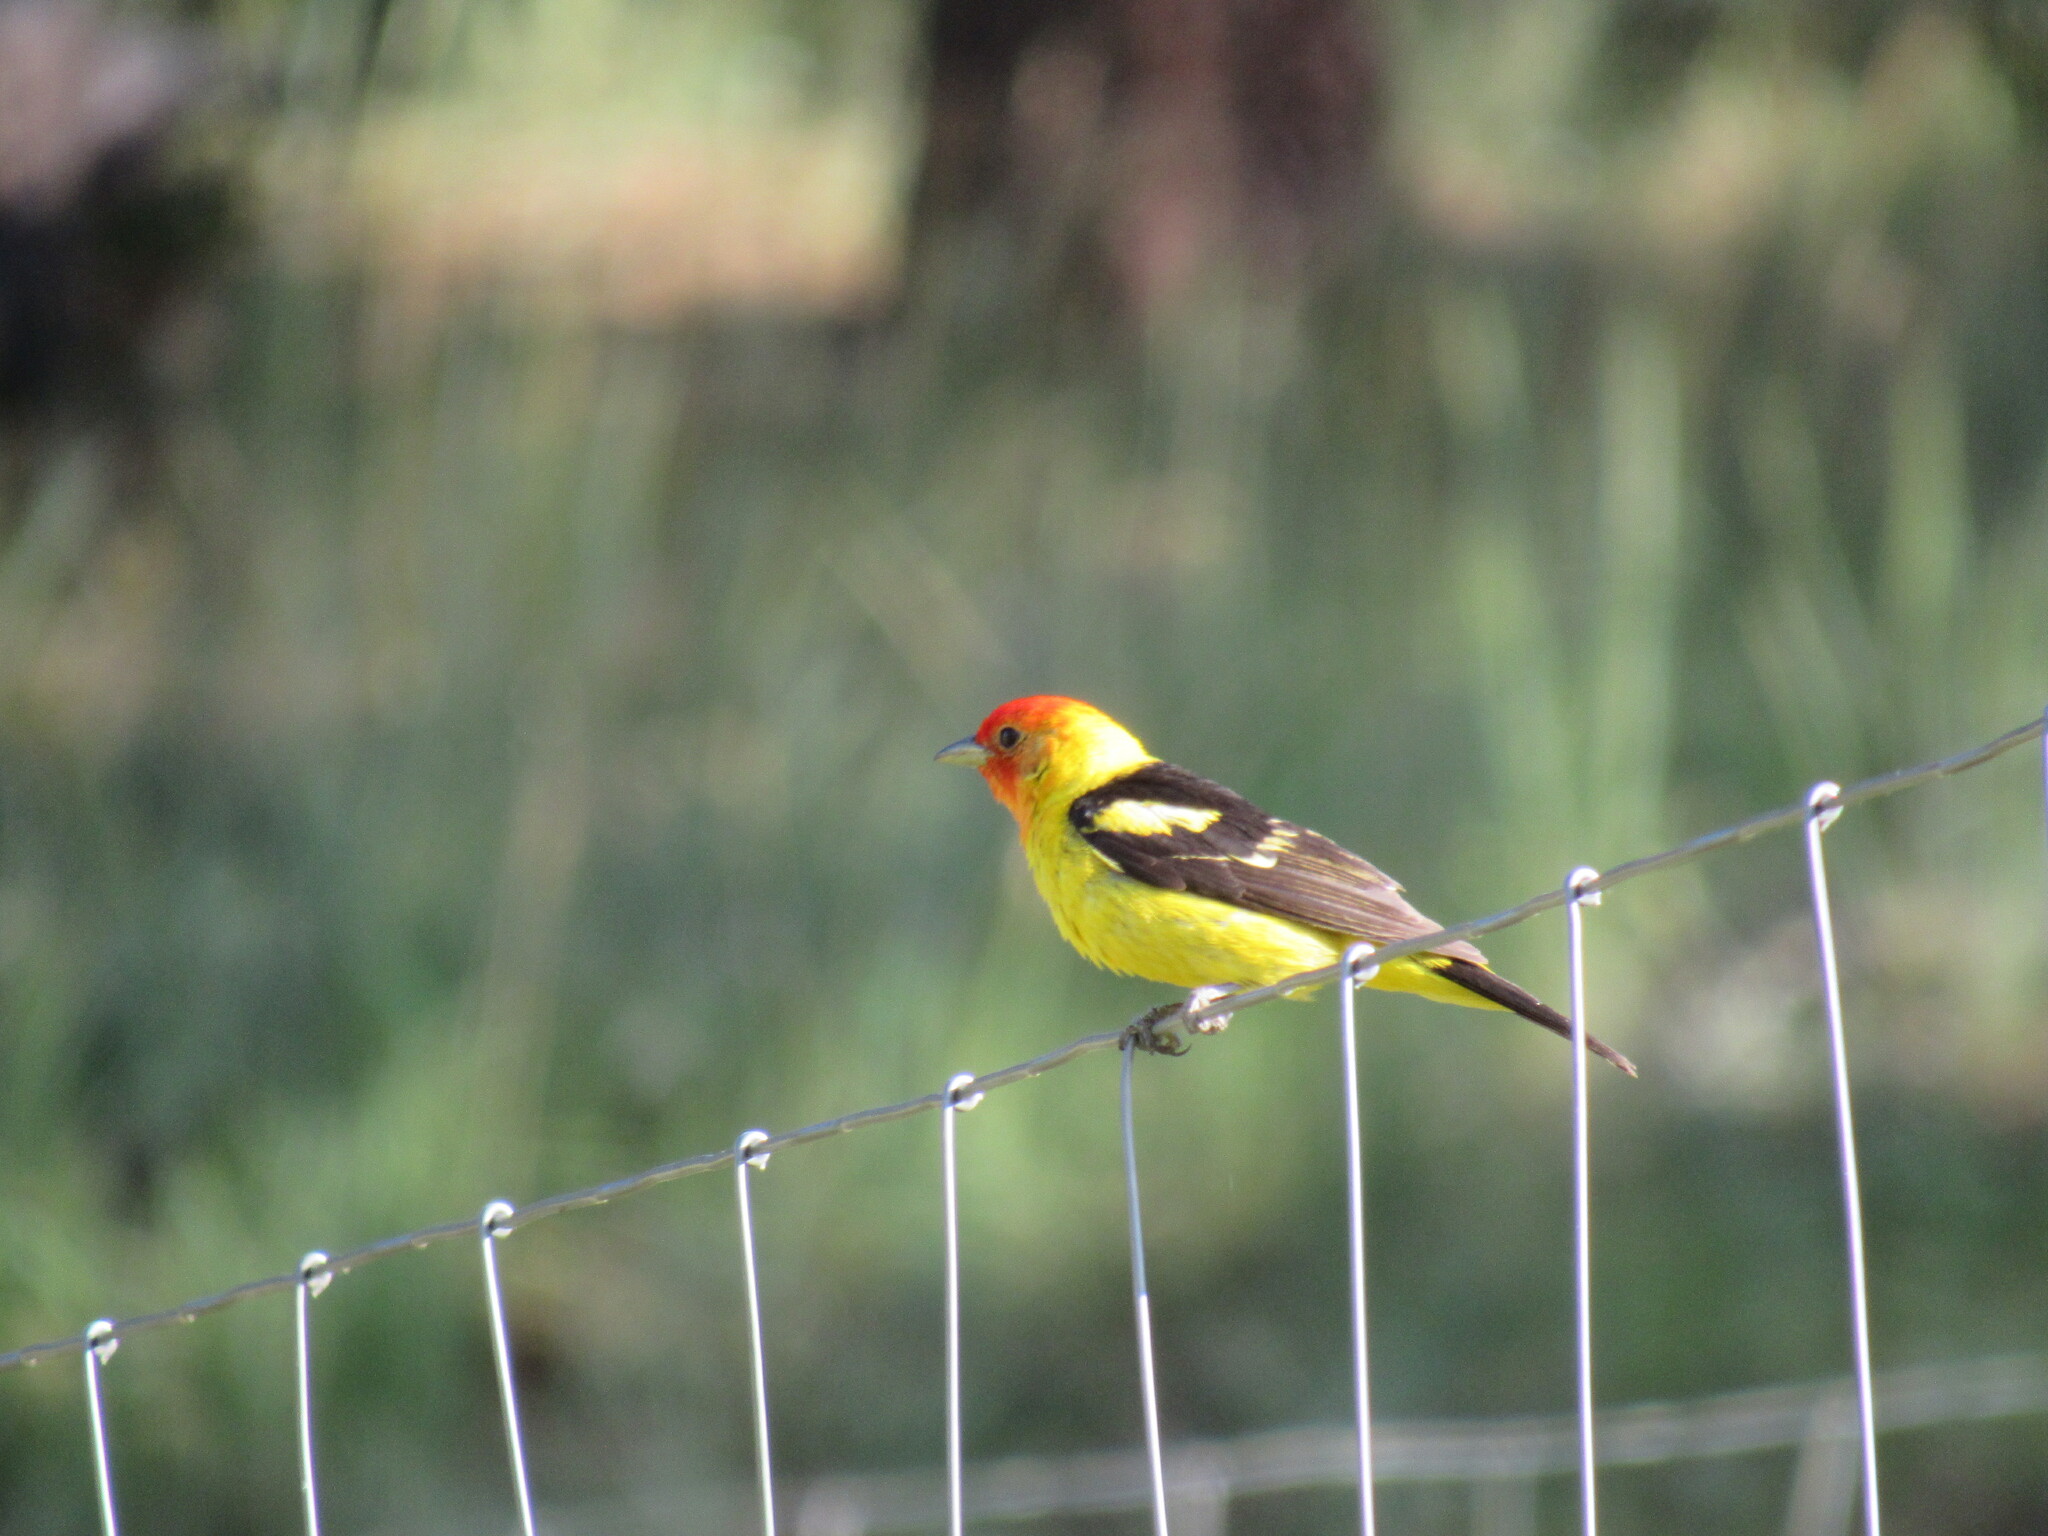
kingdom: Animalia
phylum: Chordata
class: Aves
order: Passeriformes
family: Cardinalidae
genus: Piranga
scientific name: Piranga ludoviciana
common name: Western tanager
